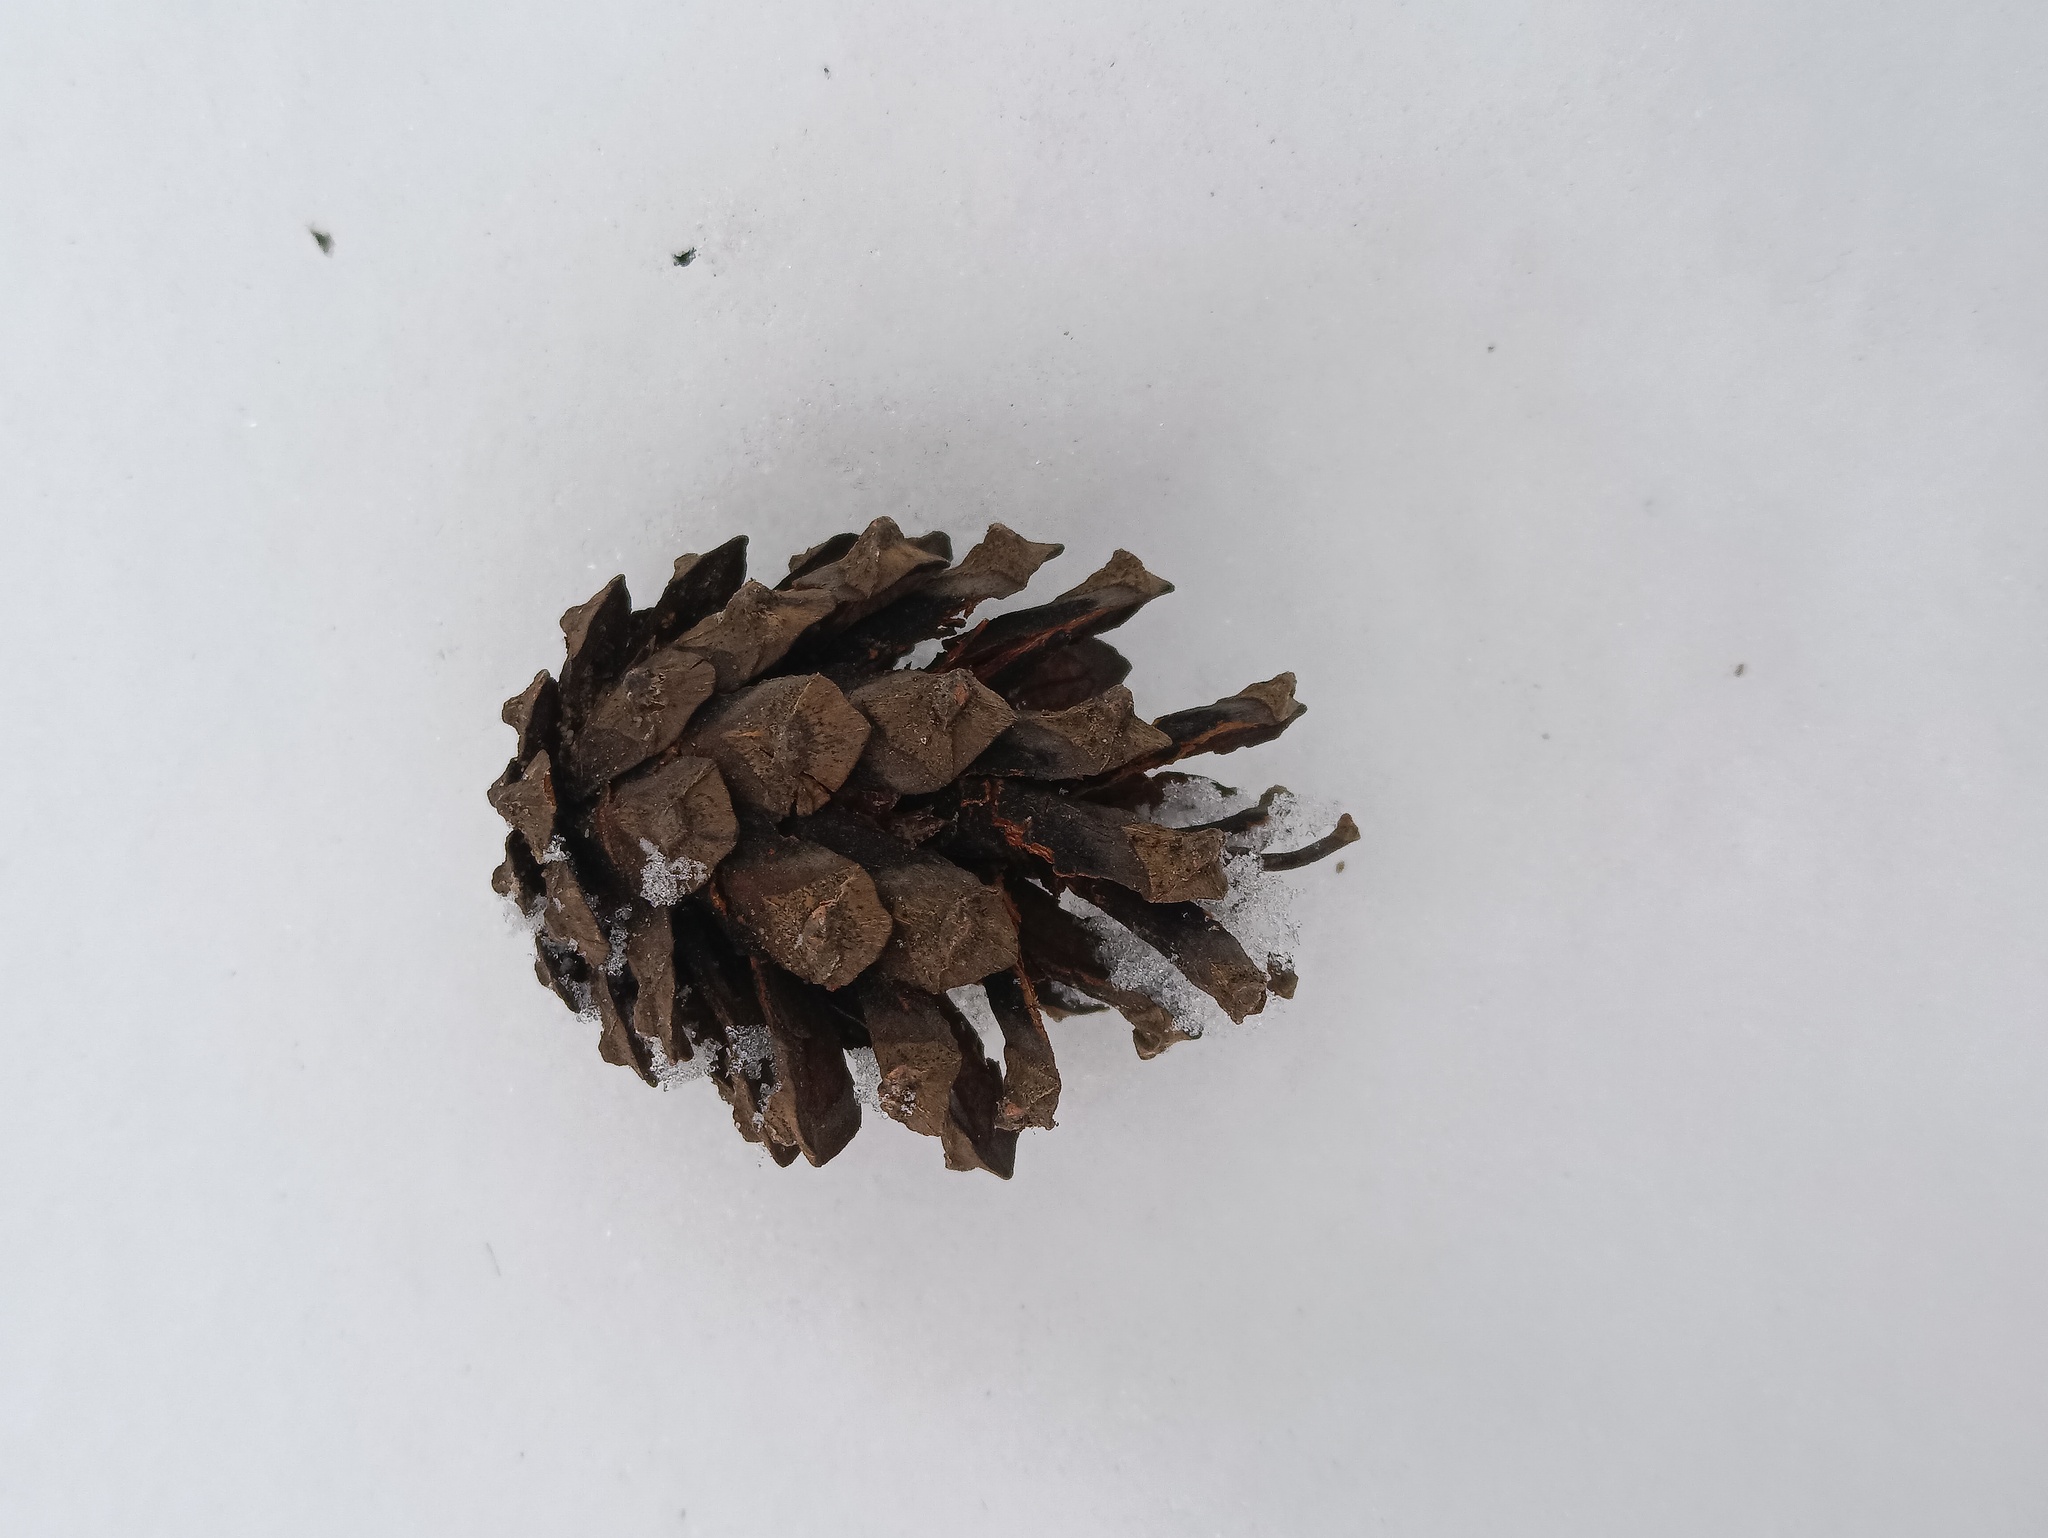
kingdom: Plantae
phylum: Tracheophyta
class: Pinopsida
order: Pinales
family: Pinaceae
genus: Pinus
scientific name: Pinus sylvestris
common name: Scots pine
